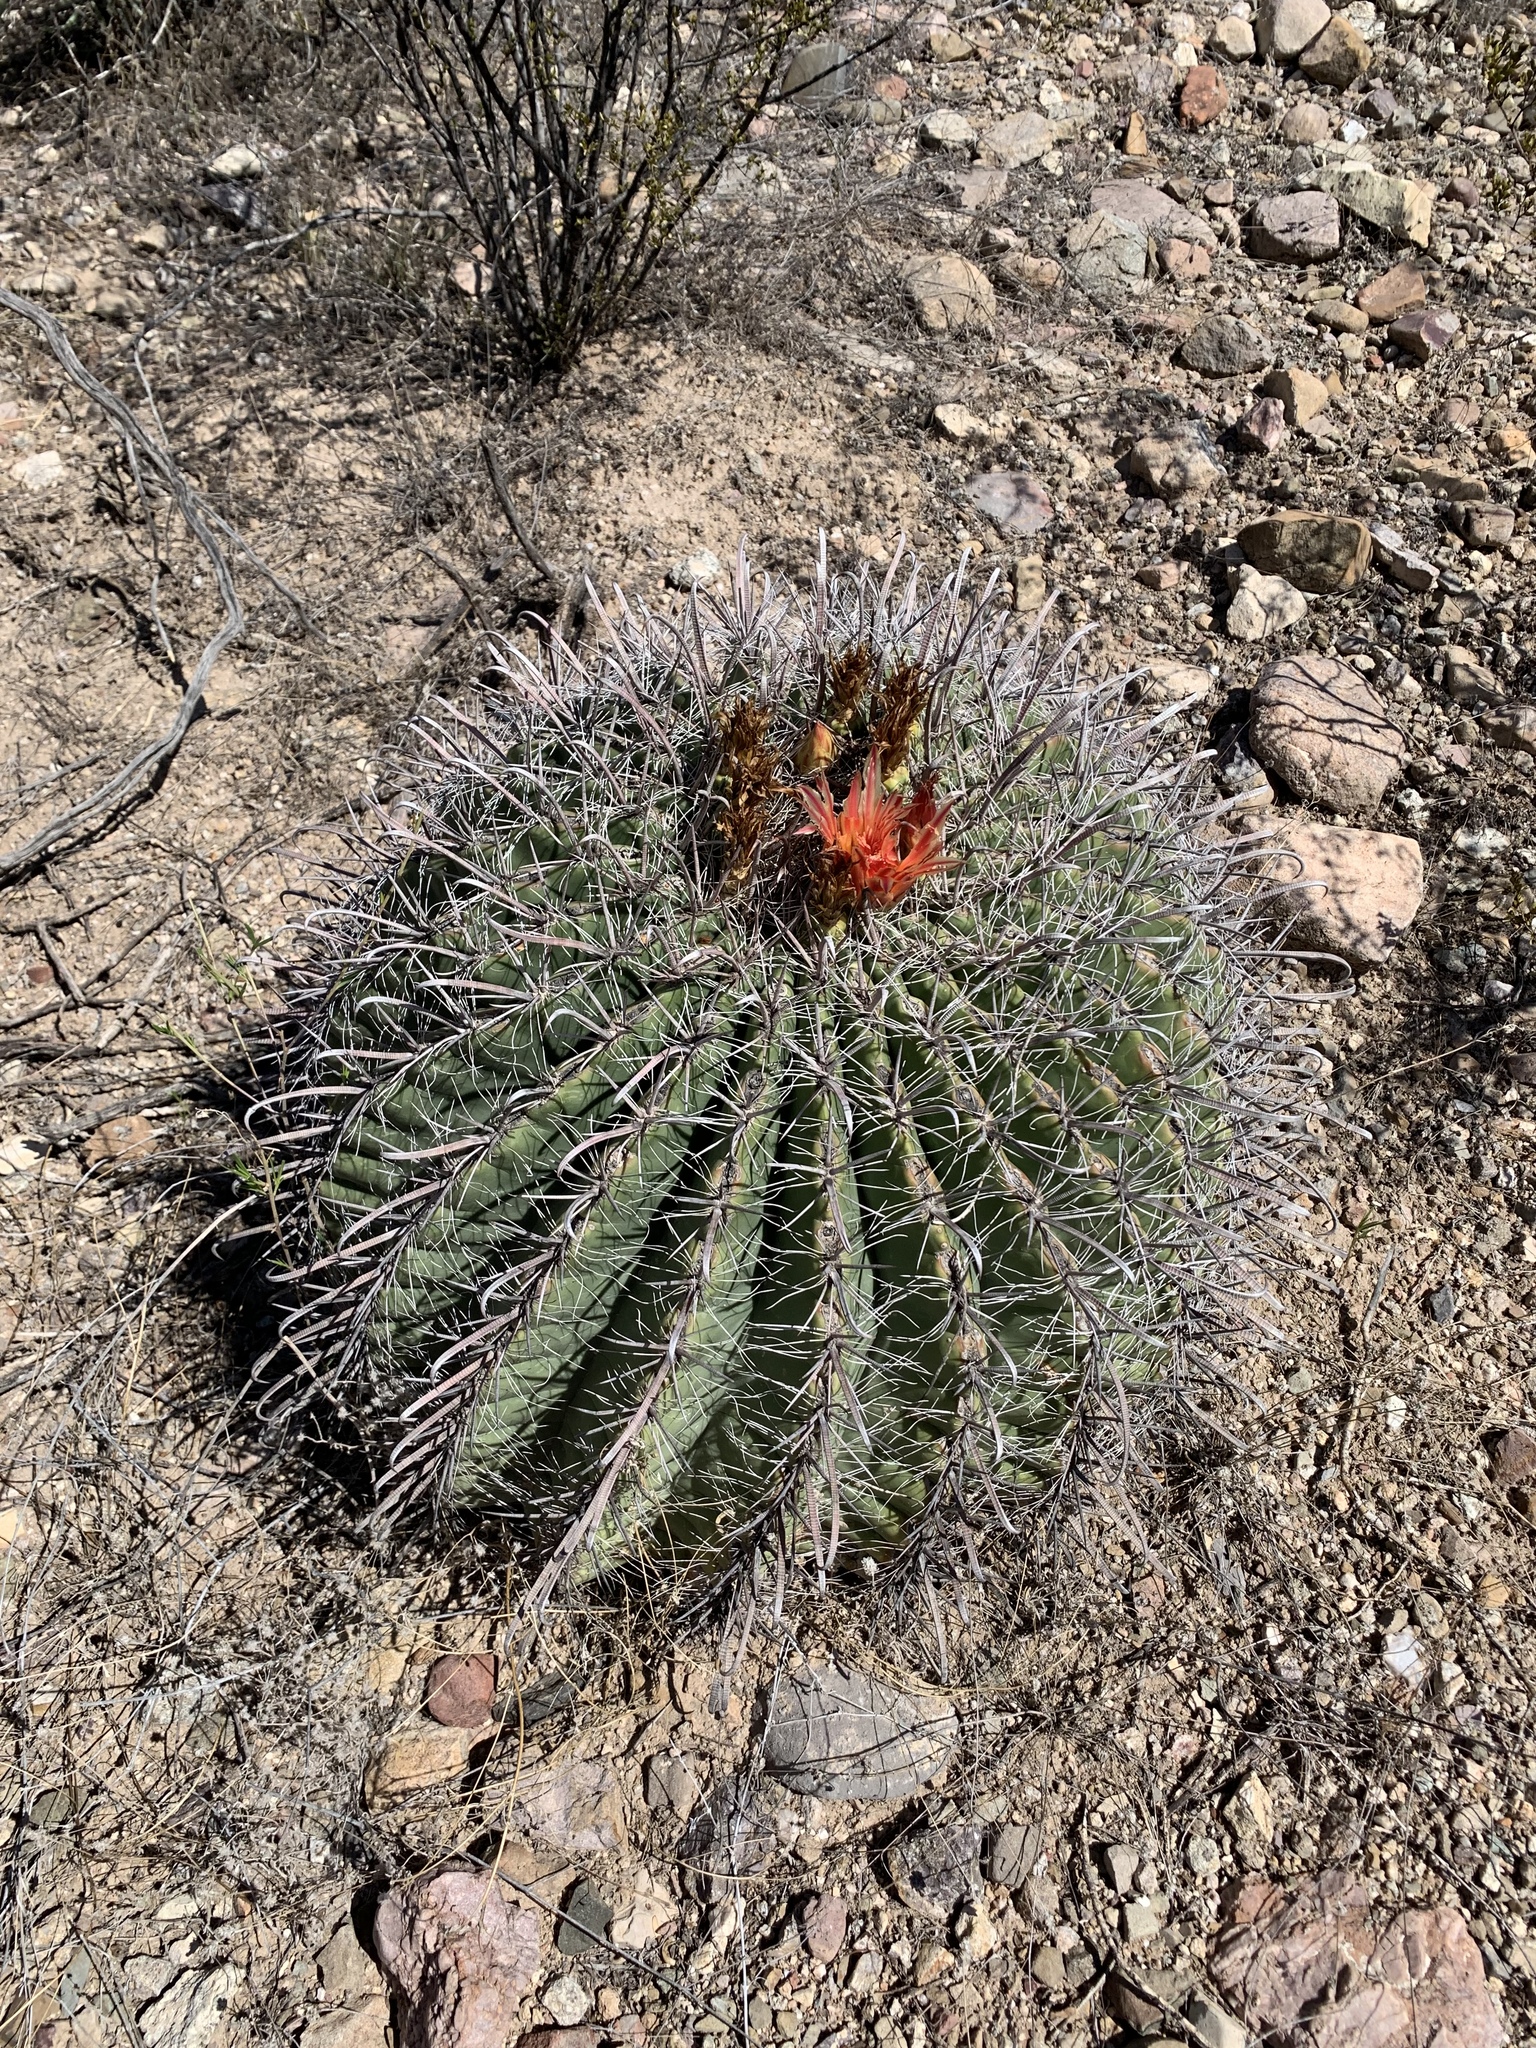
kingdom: Plantae
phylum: Tracheophyta
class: Magnoliopsida
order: Caryophyllales
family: Cactaceae
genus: Ferocactus
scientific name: Ferocactus wislizeni
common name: Candy barrel cactus
